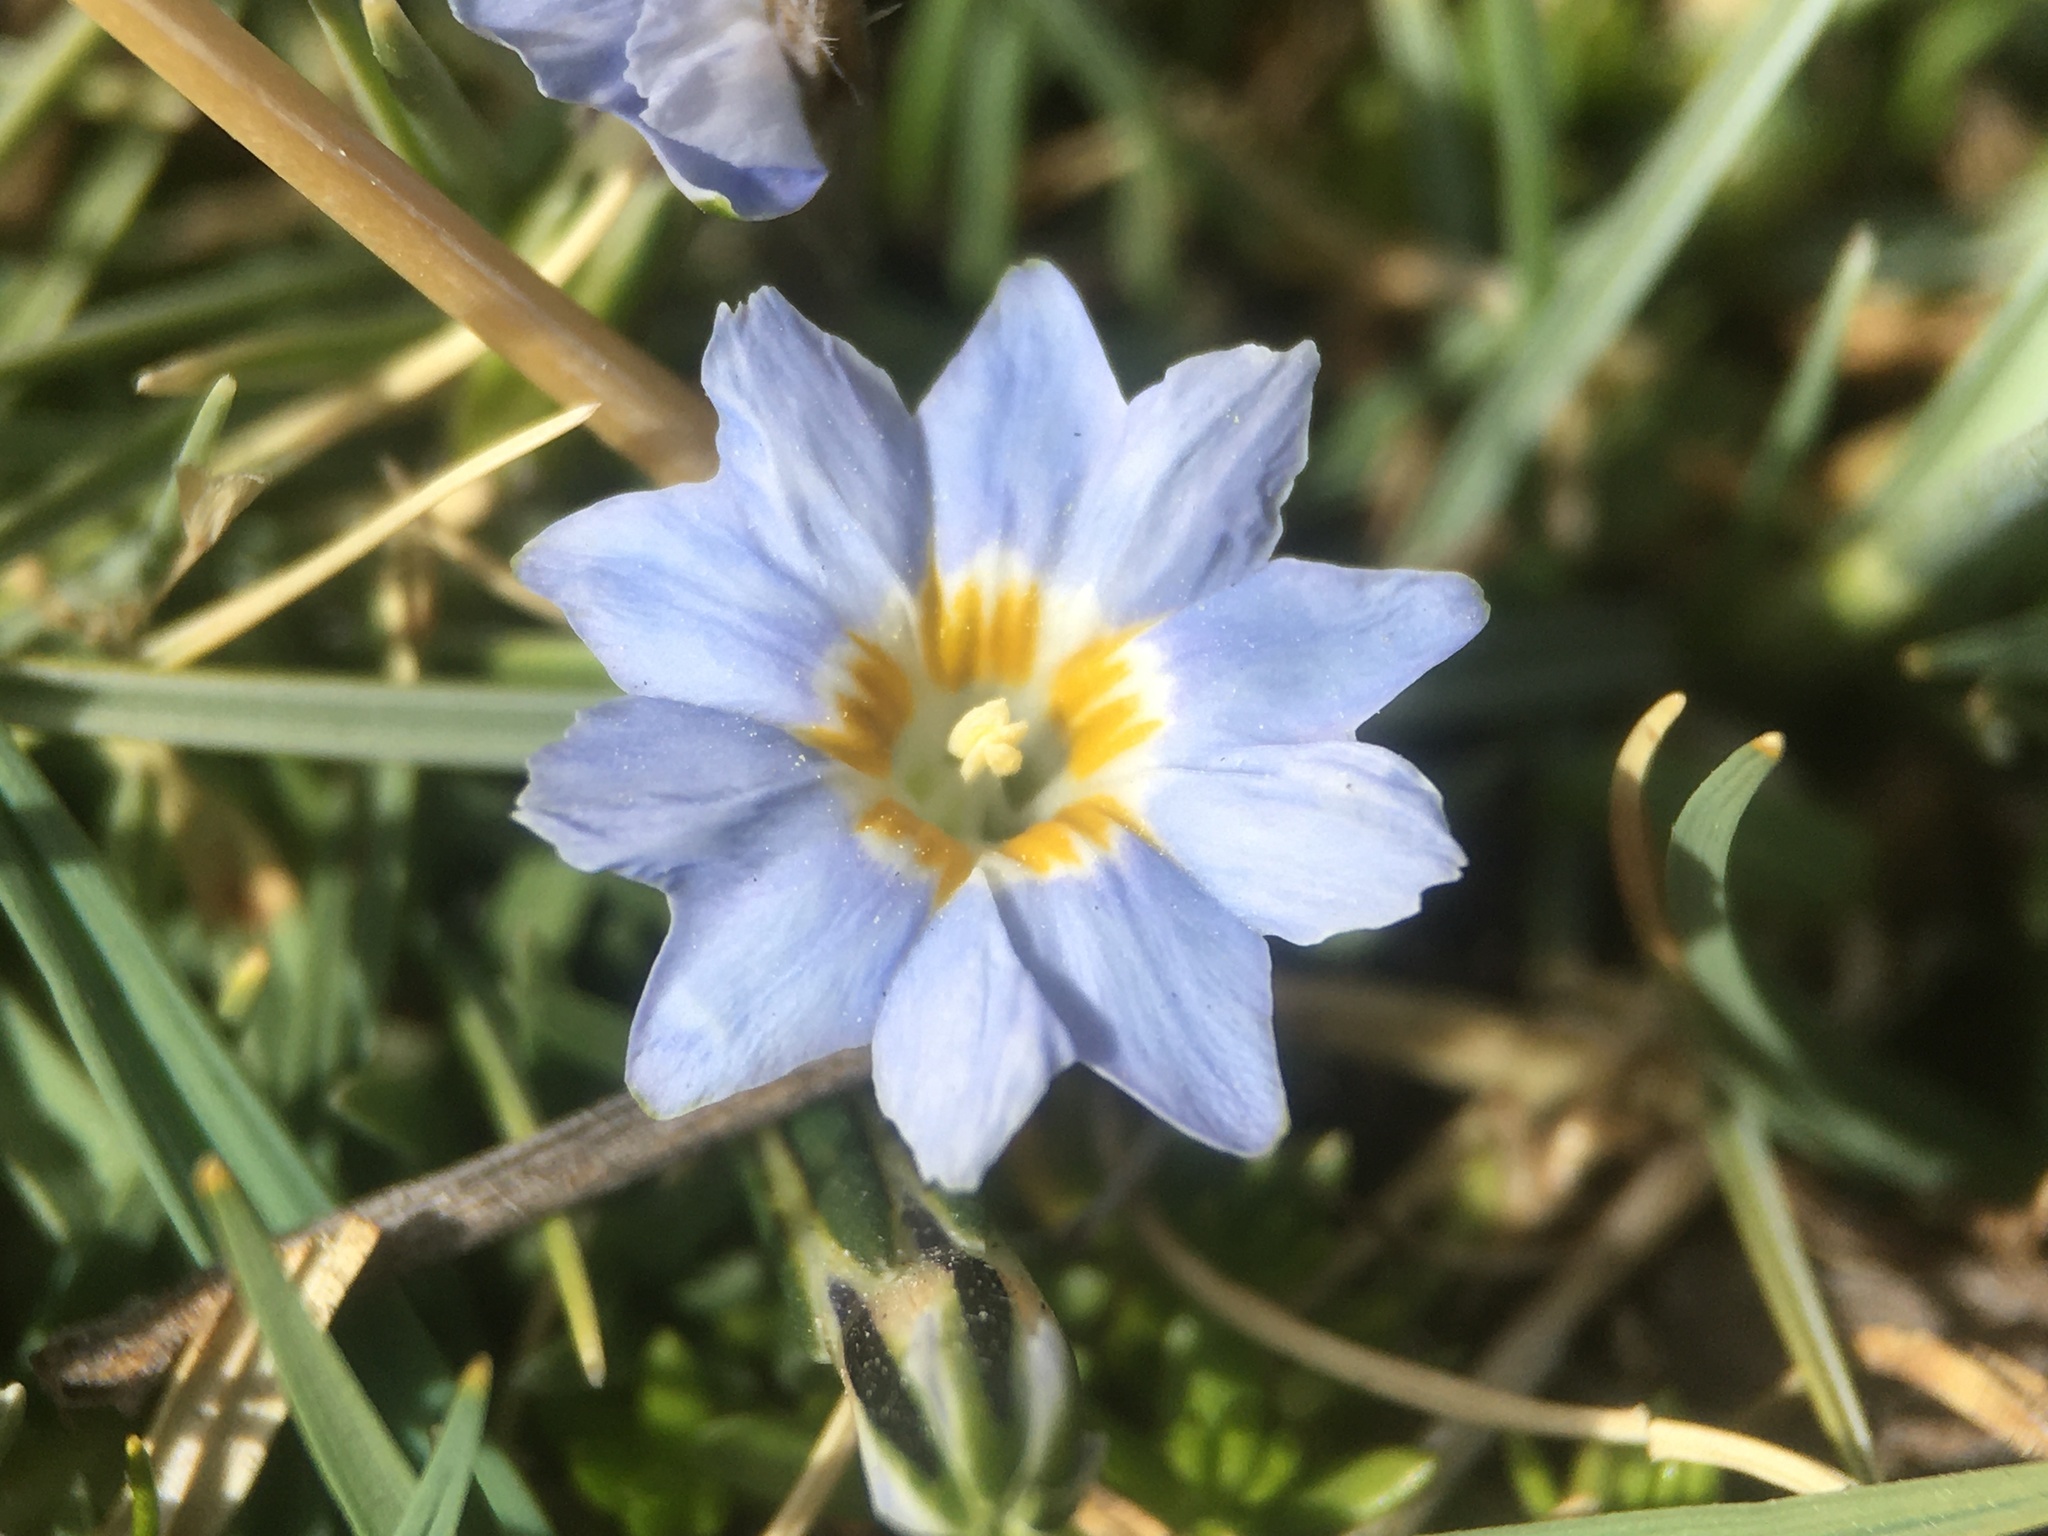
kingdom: Plantae
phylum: Tracheophyta
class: Magnoliopsida
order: Gentianales
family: Gentianaceae
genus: Gentiana
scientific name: Gentiana sedifolia
